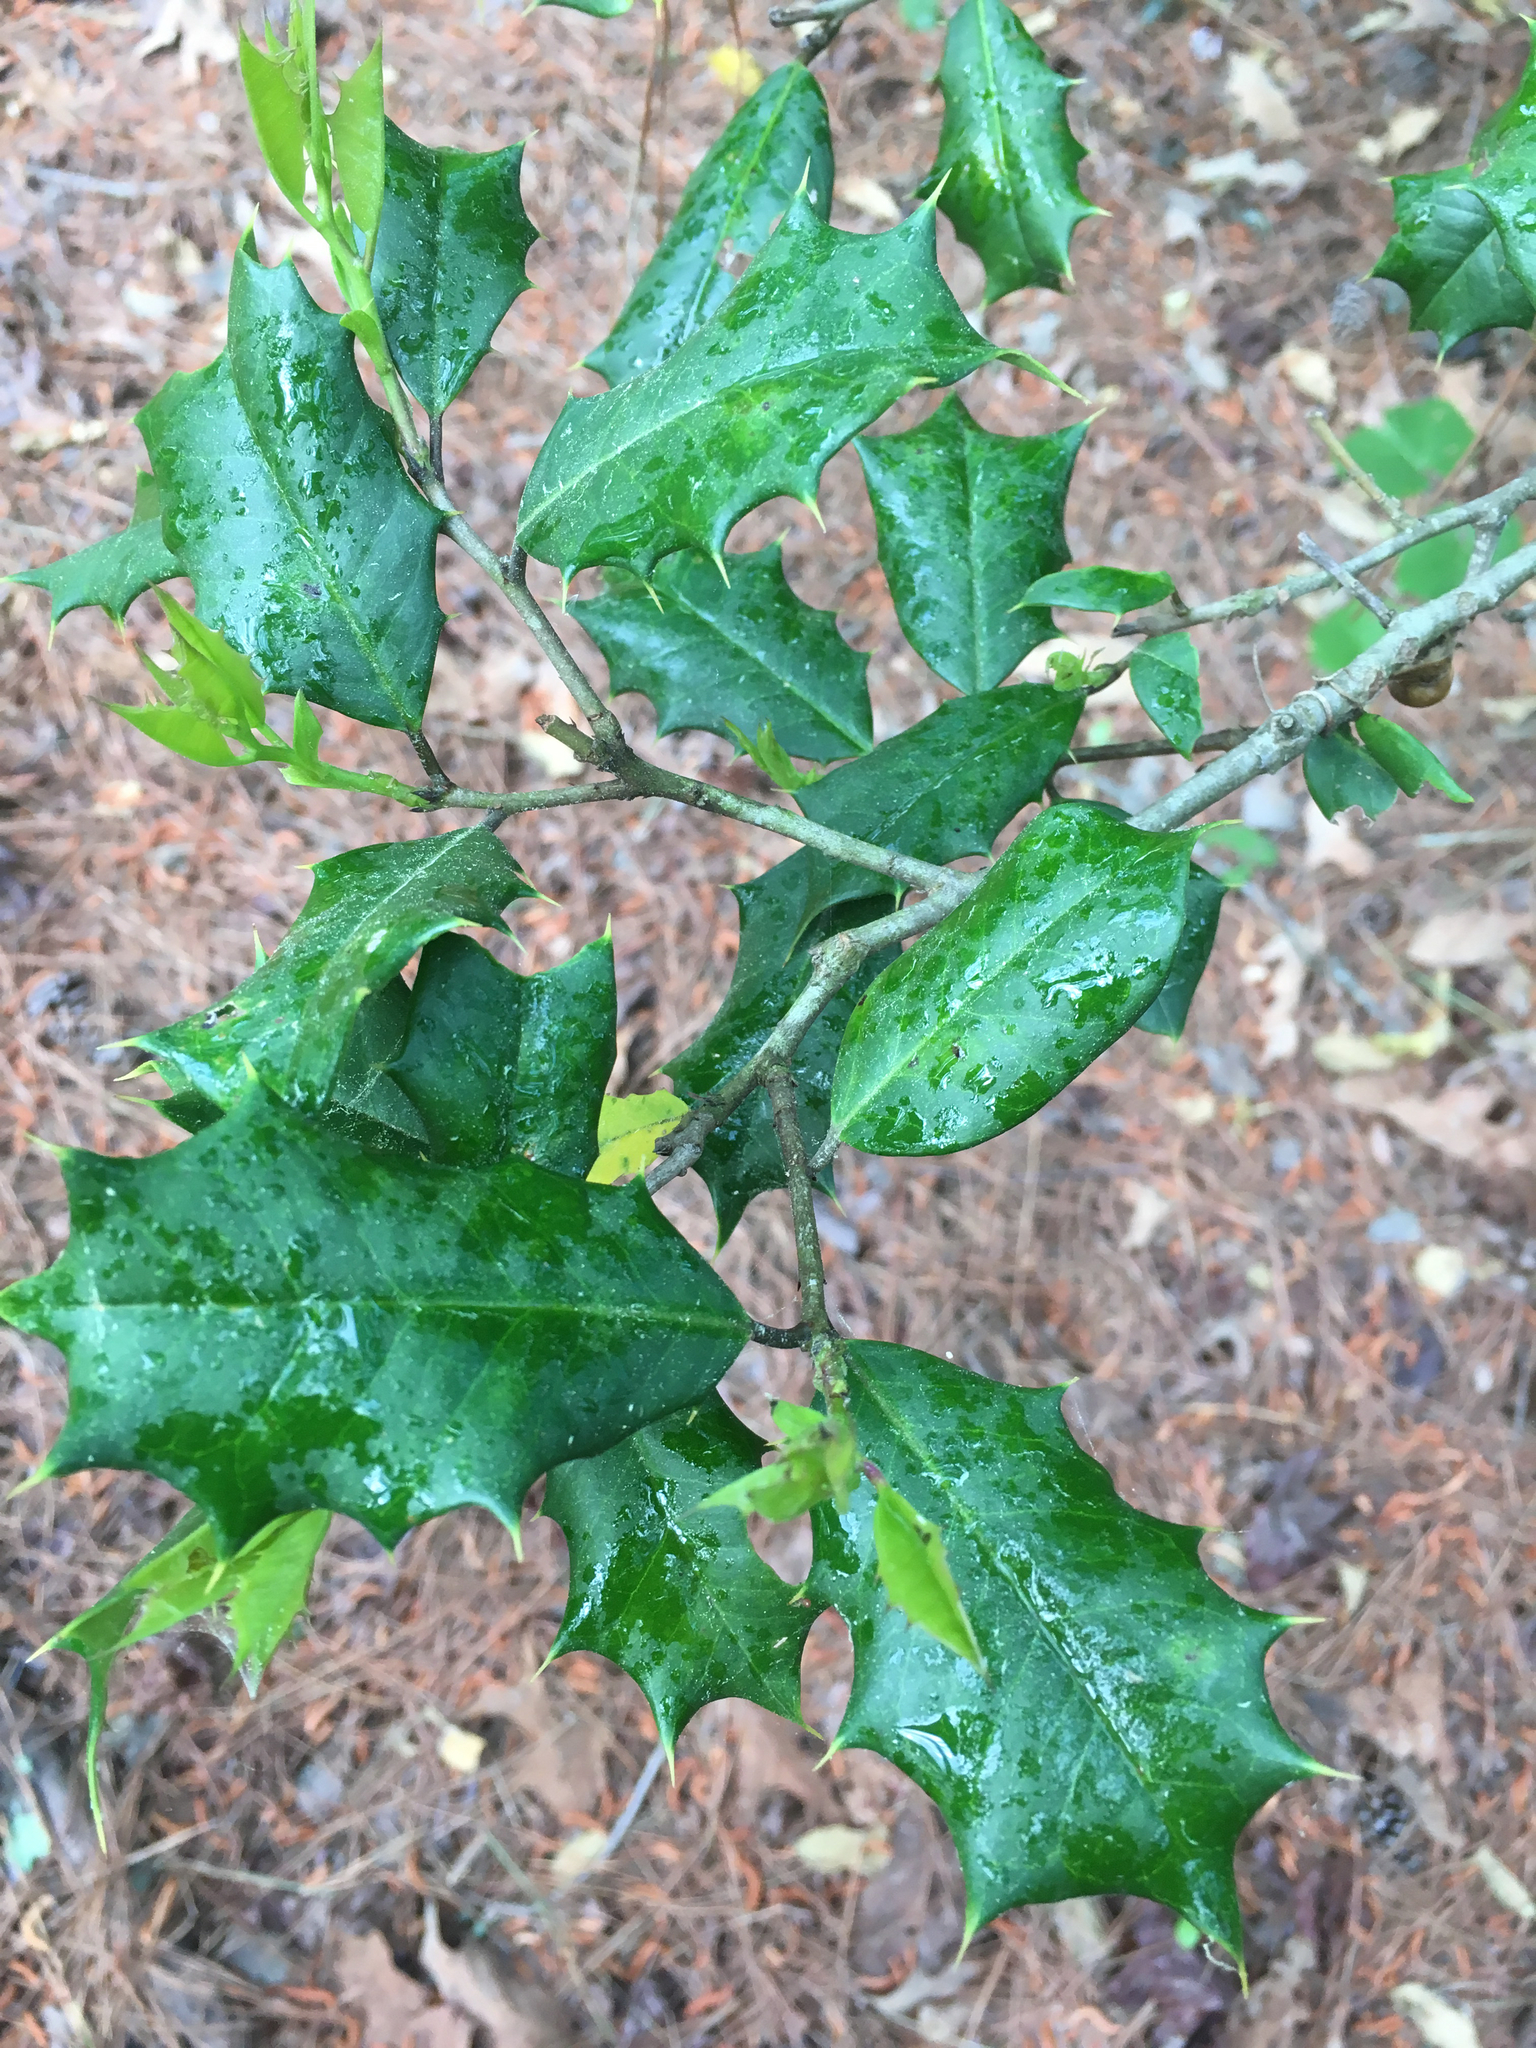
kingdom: Plantae
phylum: Tracheophyta
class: Magnoliopsida
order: Aquifoliales
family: Aquifoliaceae
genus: Ilex
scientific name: Ilex opaca
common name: American holly
